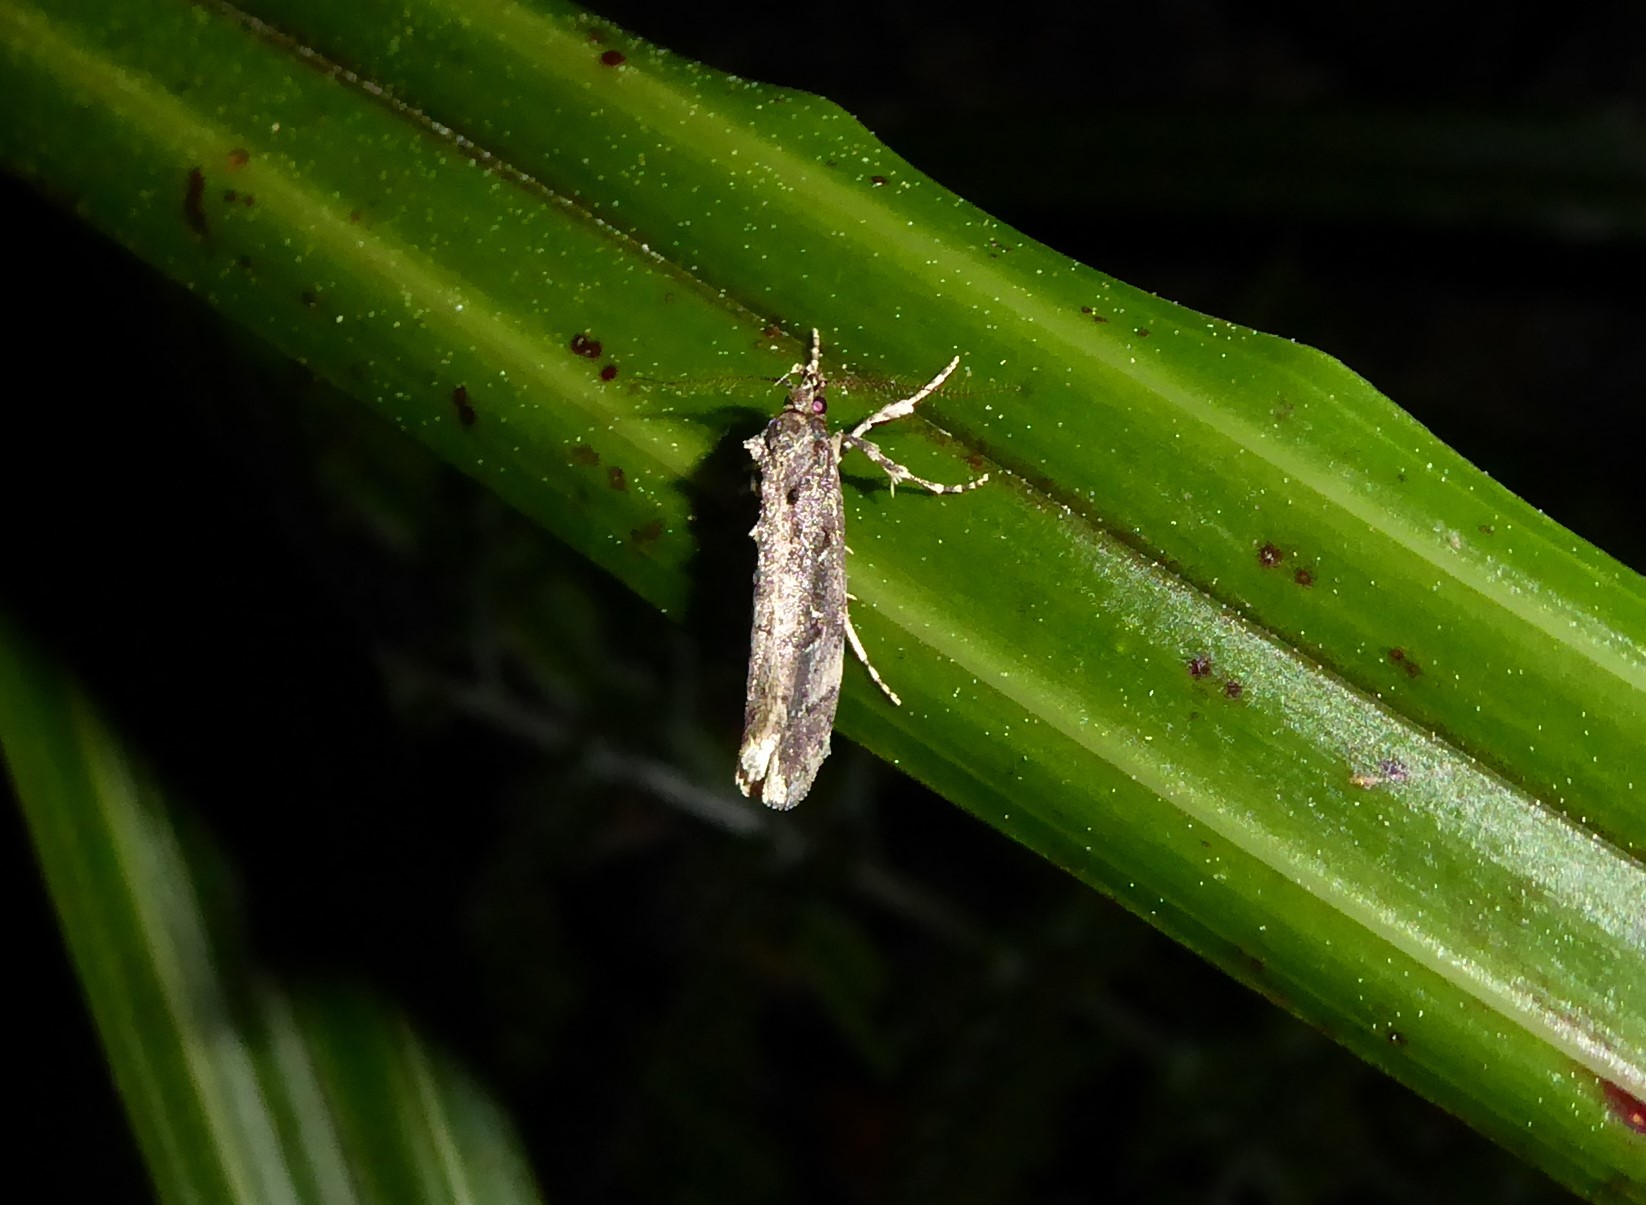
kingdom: Animalia
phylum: Arthropoda
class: Insecta
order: Lepidoptera
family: Oecophoridae
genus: Atomotricha
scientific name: Atomotricha chloronota
